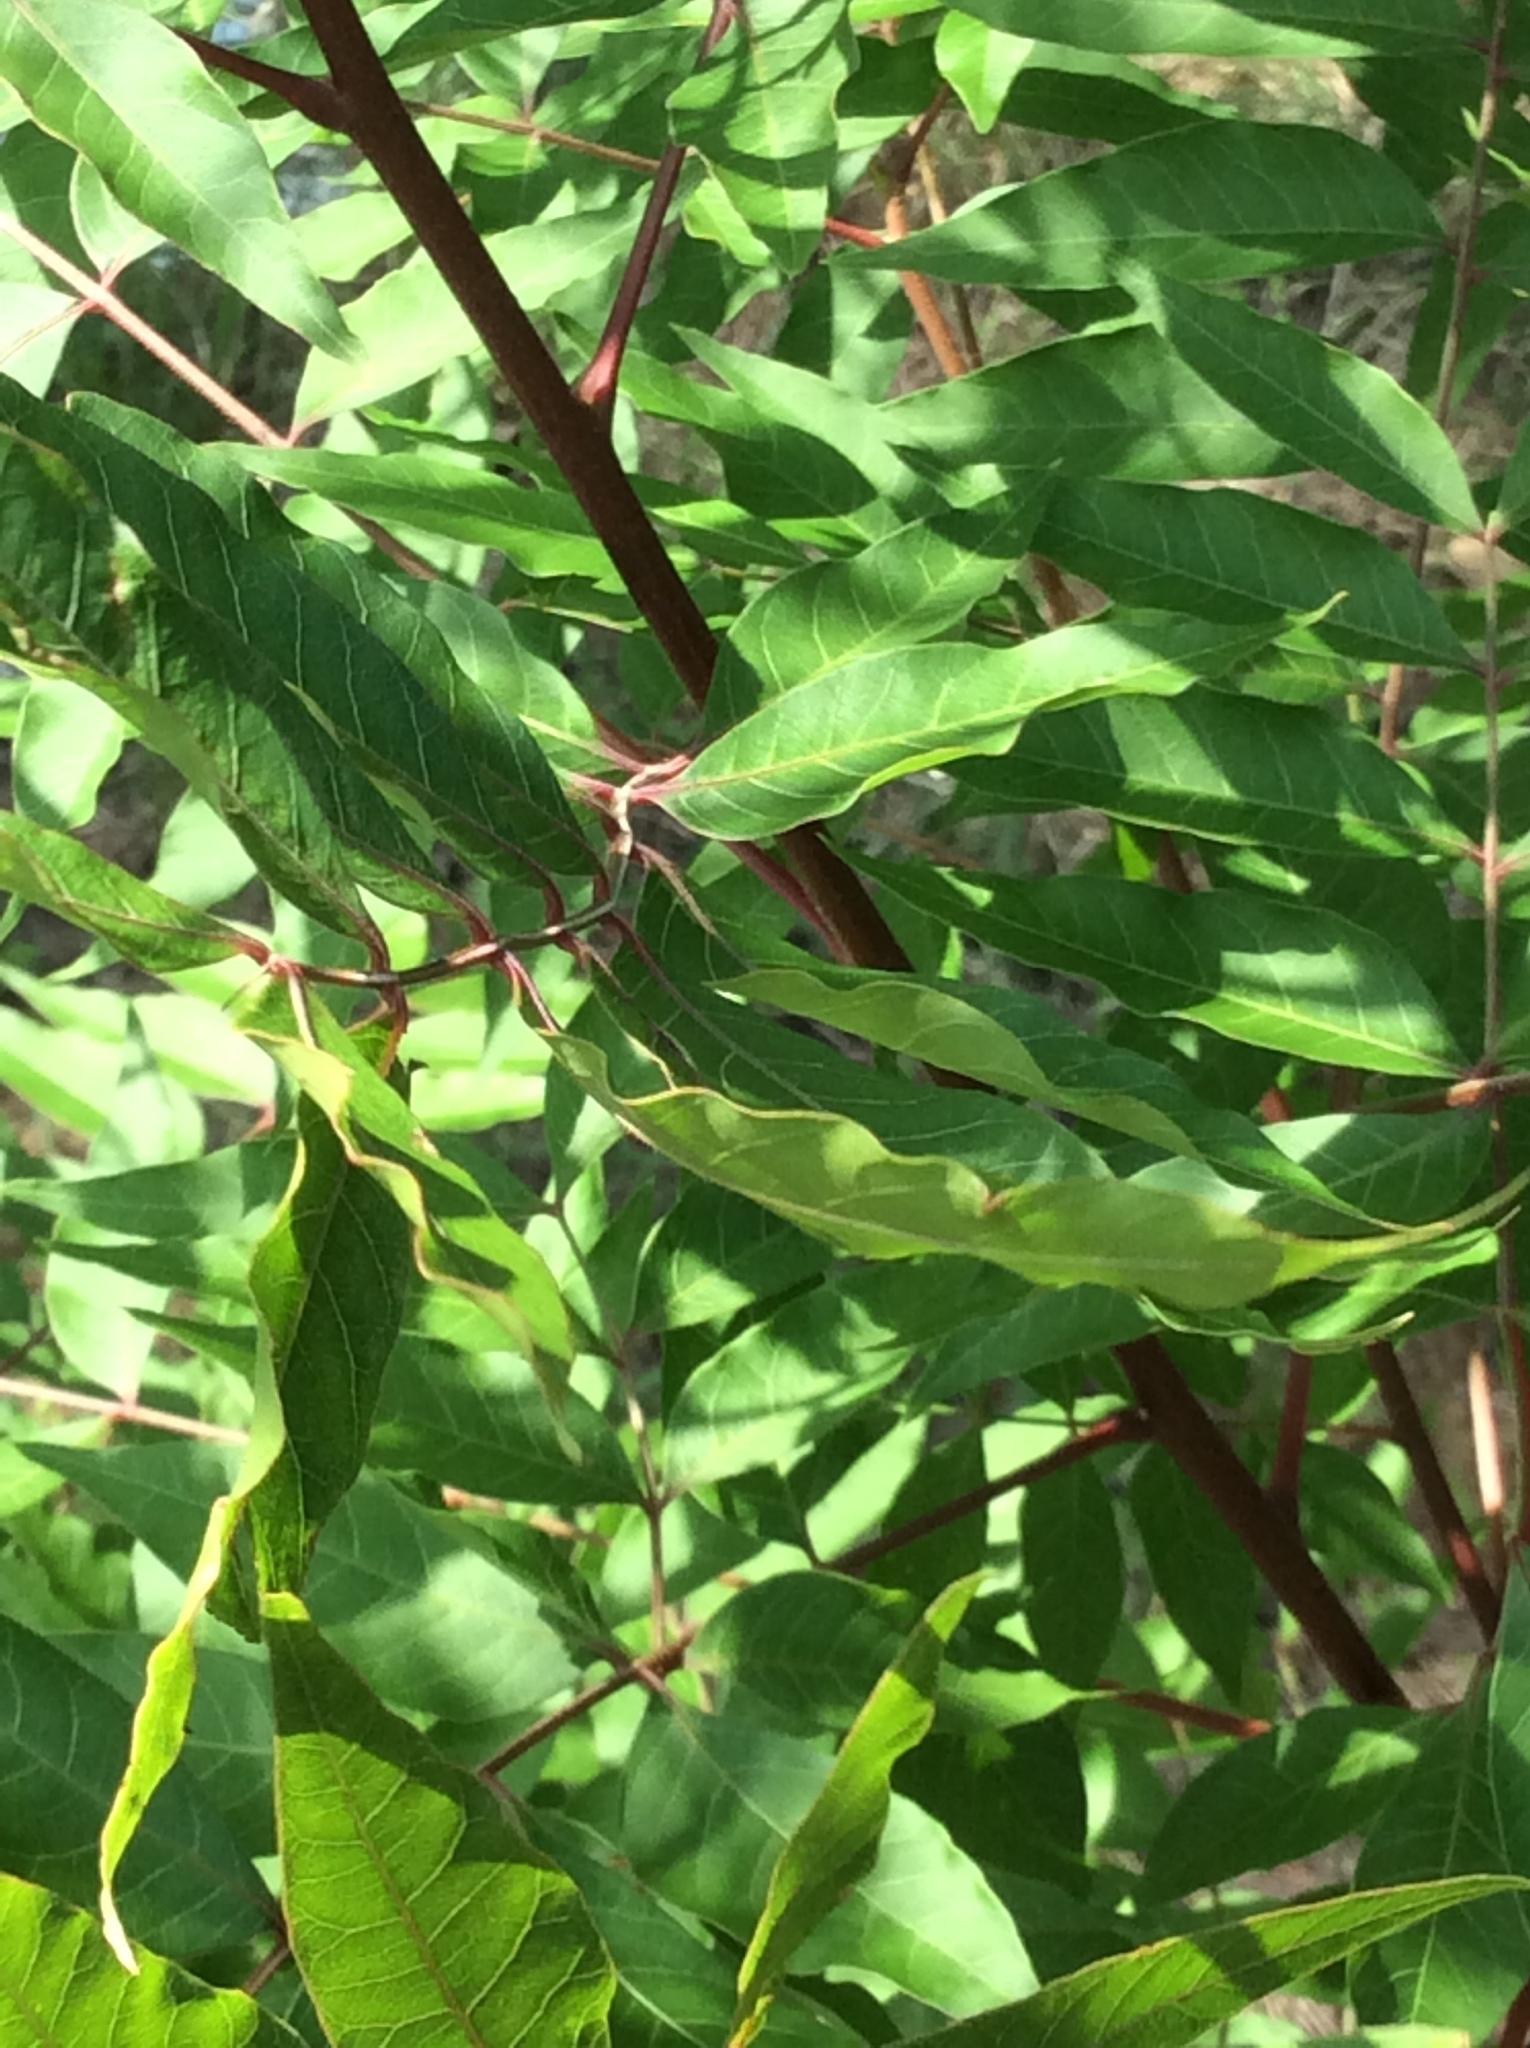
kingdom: Plantae
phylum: Tracheophyta
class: Magnoliopsida
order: Sapindales
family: Anacardiaceae
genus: Pistacia
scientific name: Pistacia chinensis
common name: Chinese pistache
